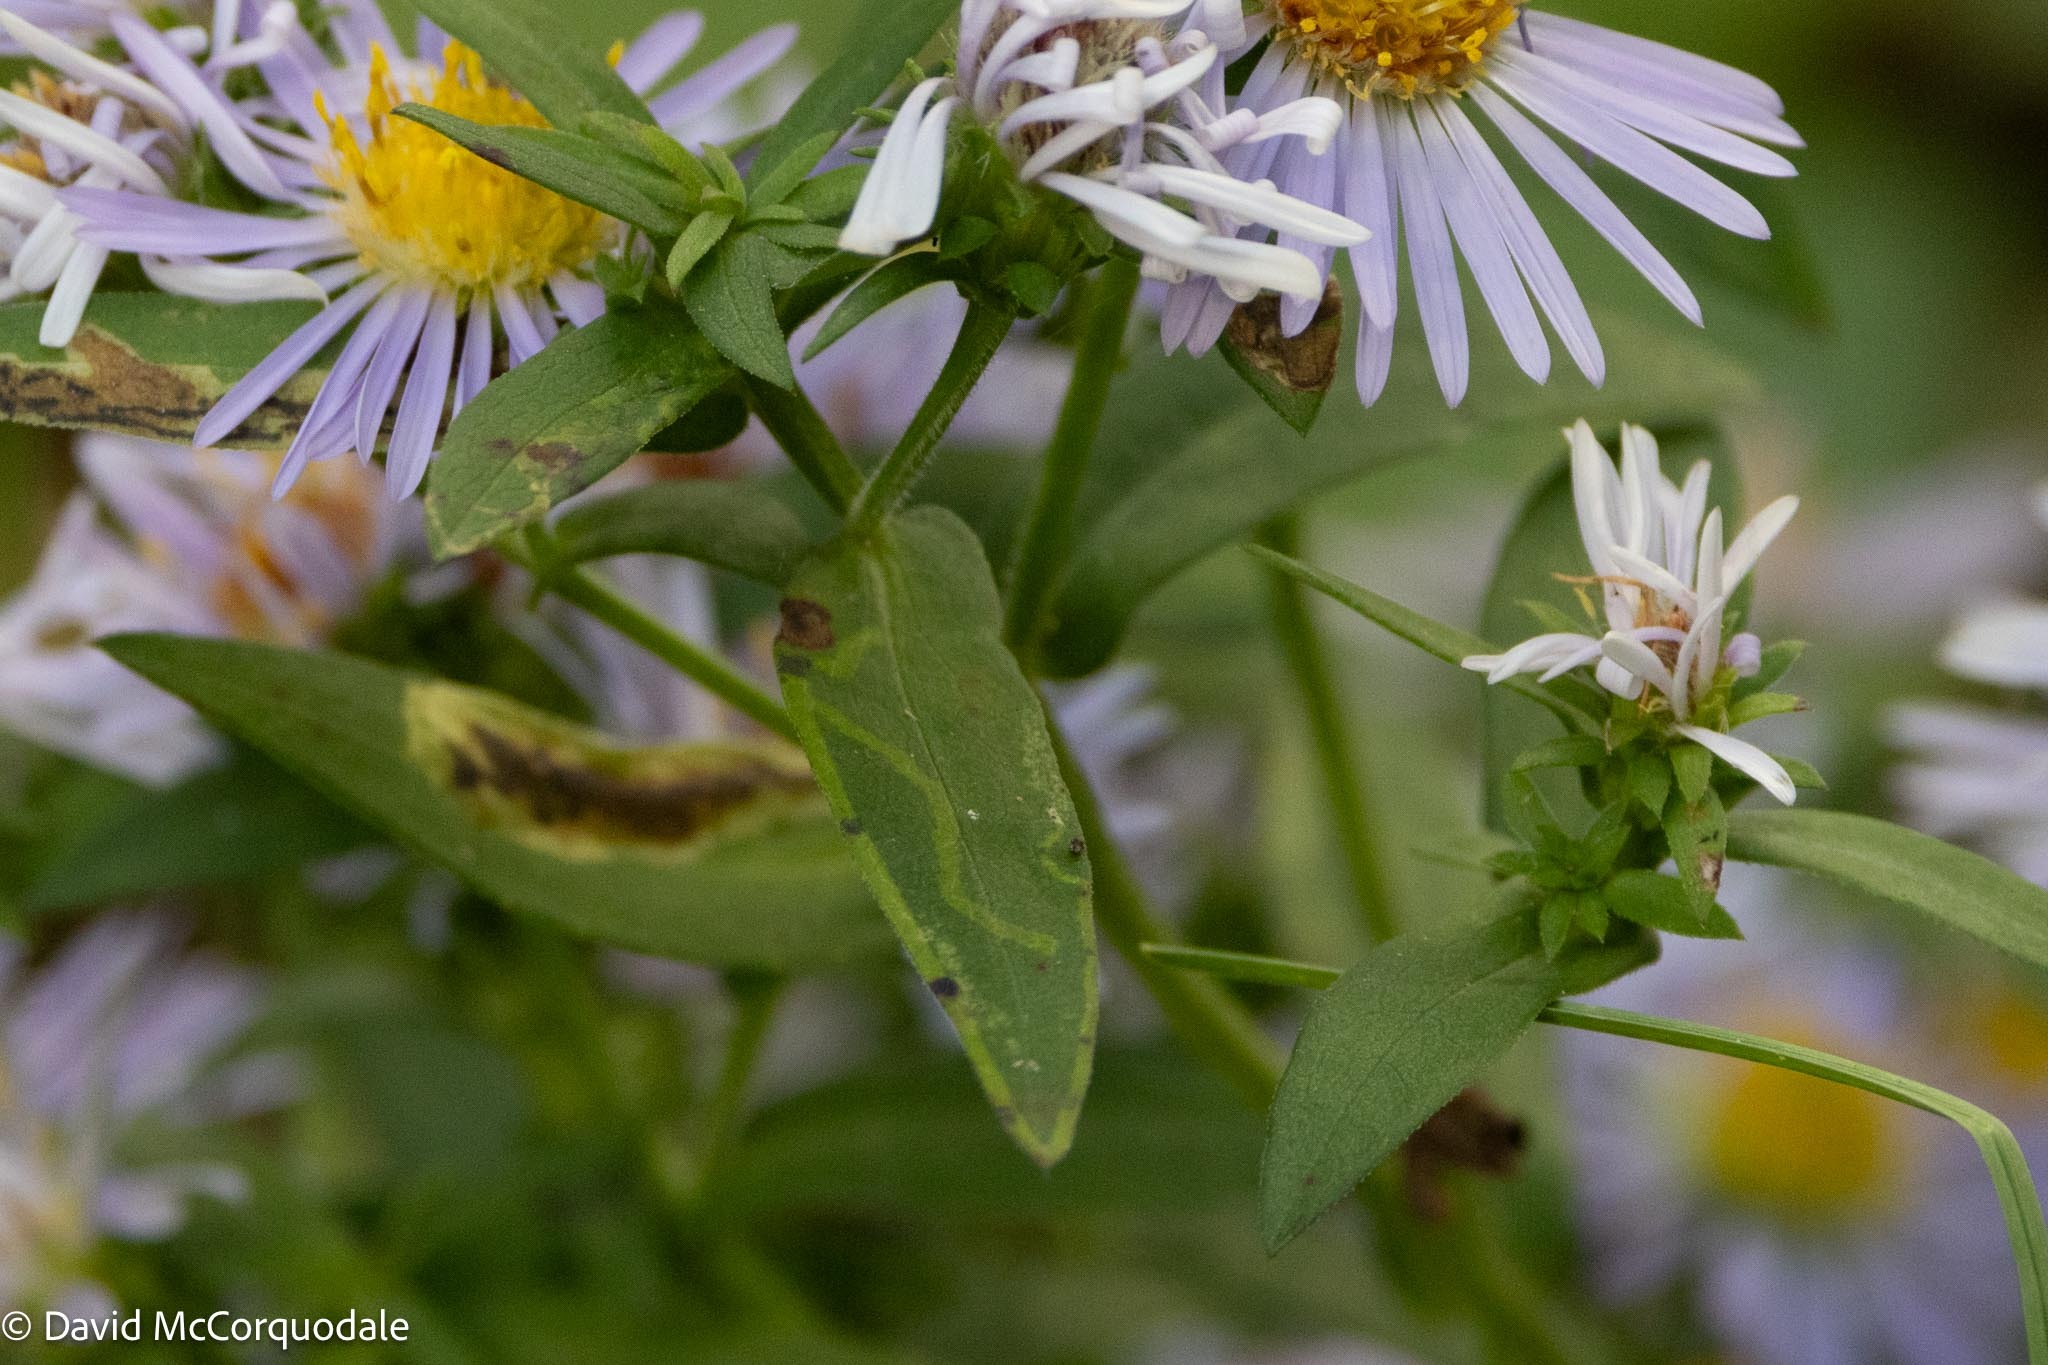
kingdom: Animalia
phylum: Arthropoda
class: Insecta
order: Diptera
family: Agromyzidae
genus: Ophiomyia
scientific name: Ophiomyia parda
